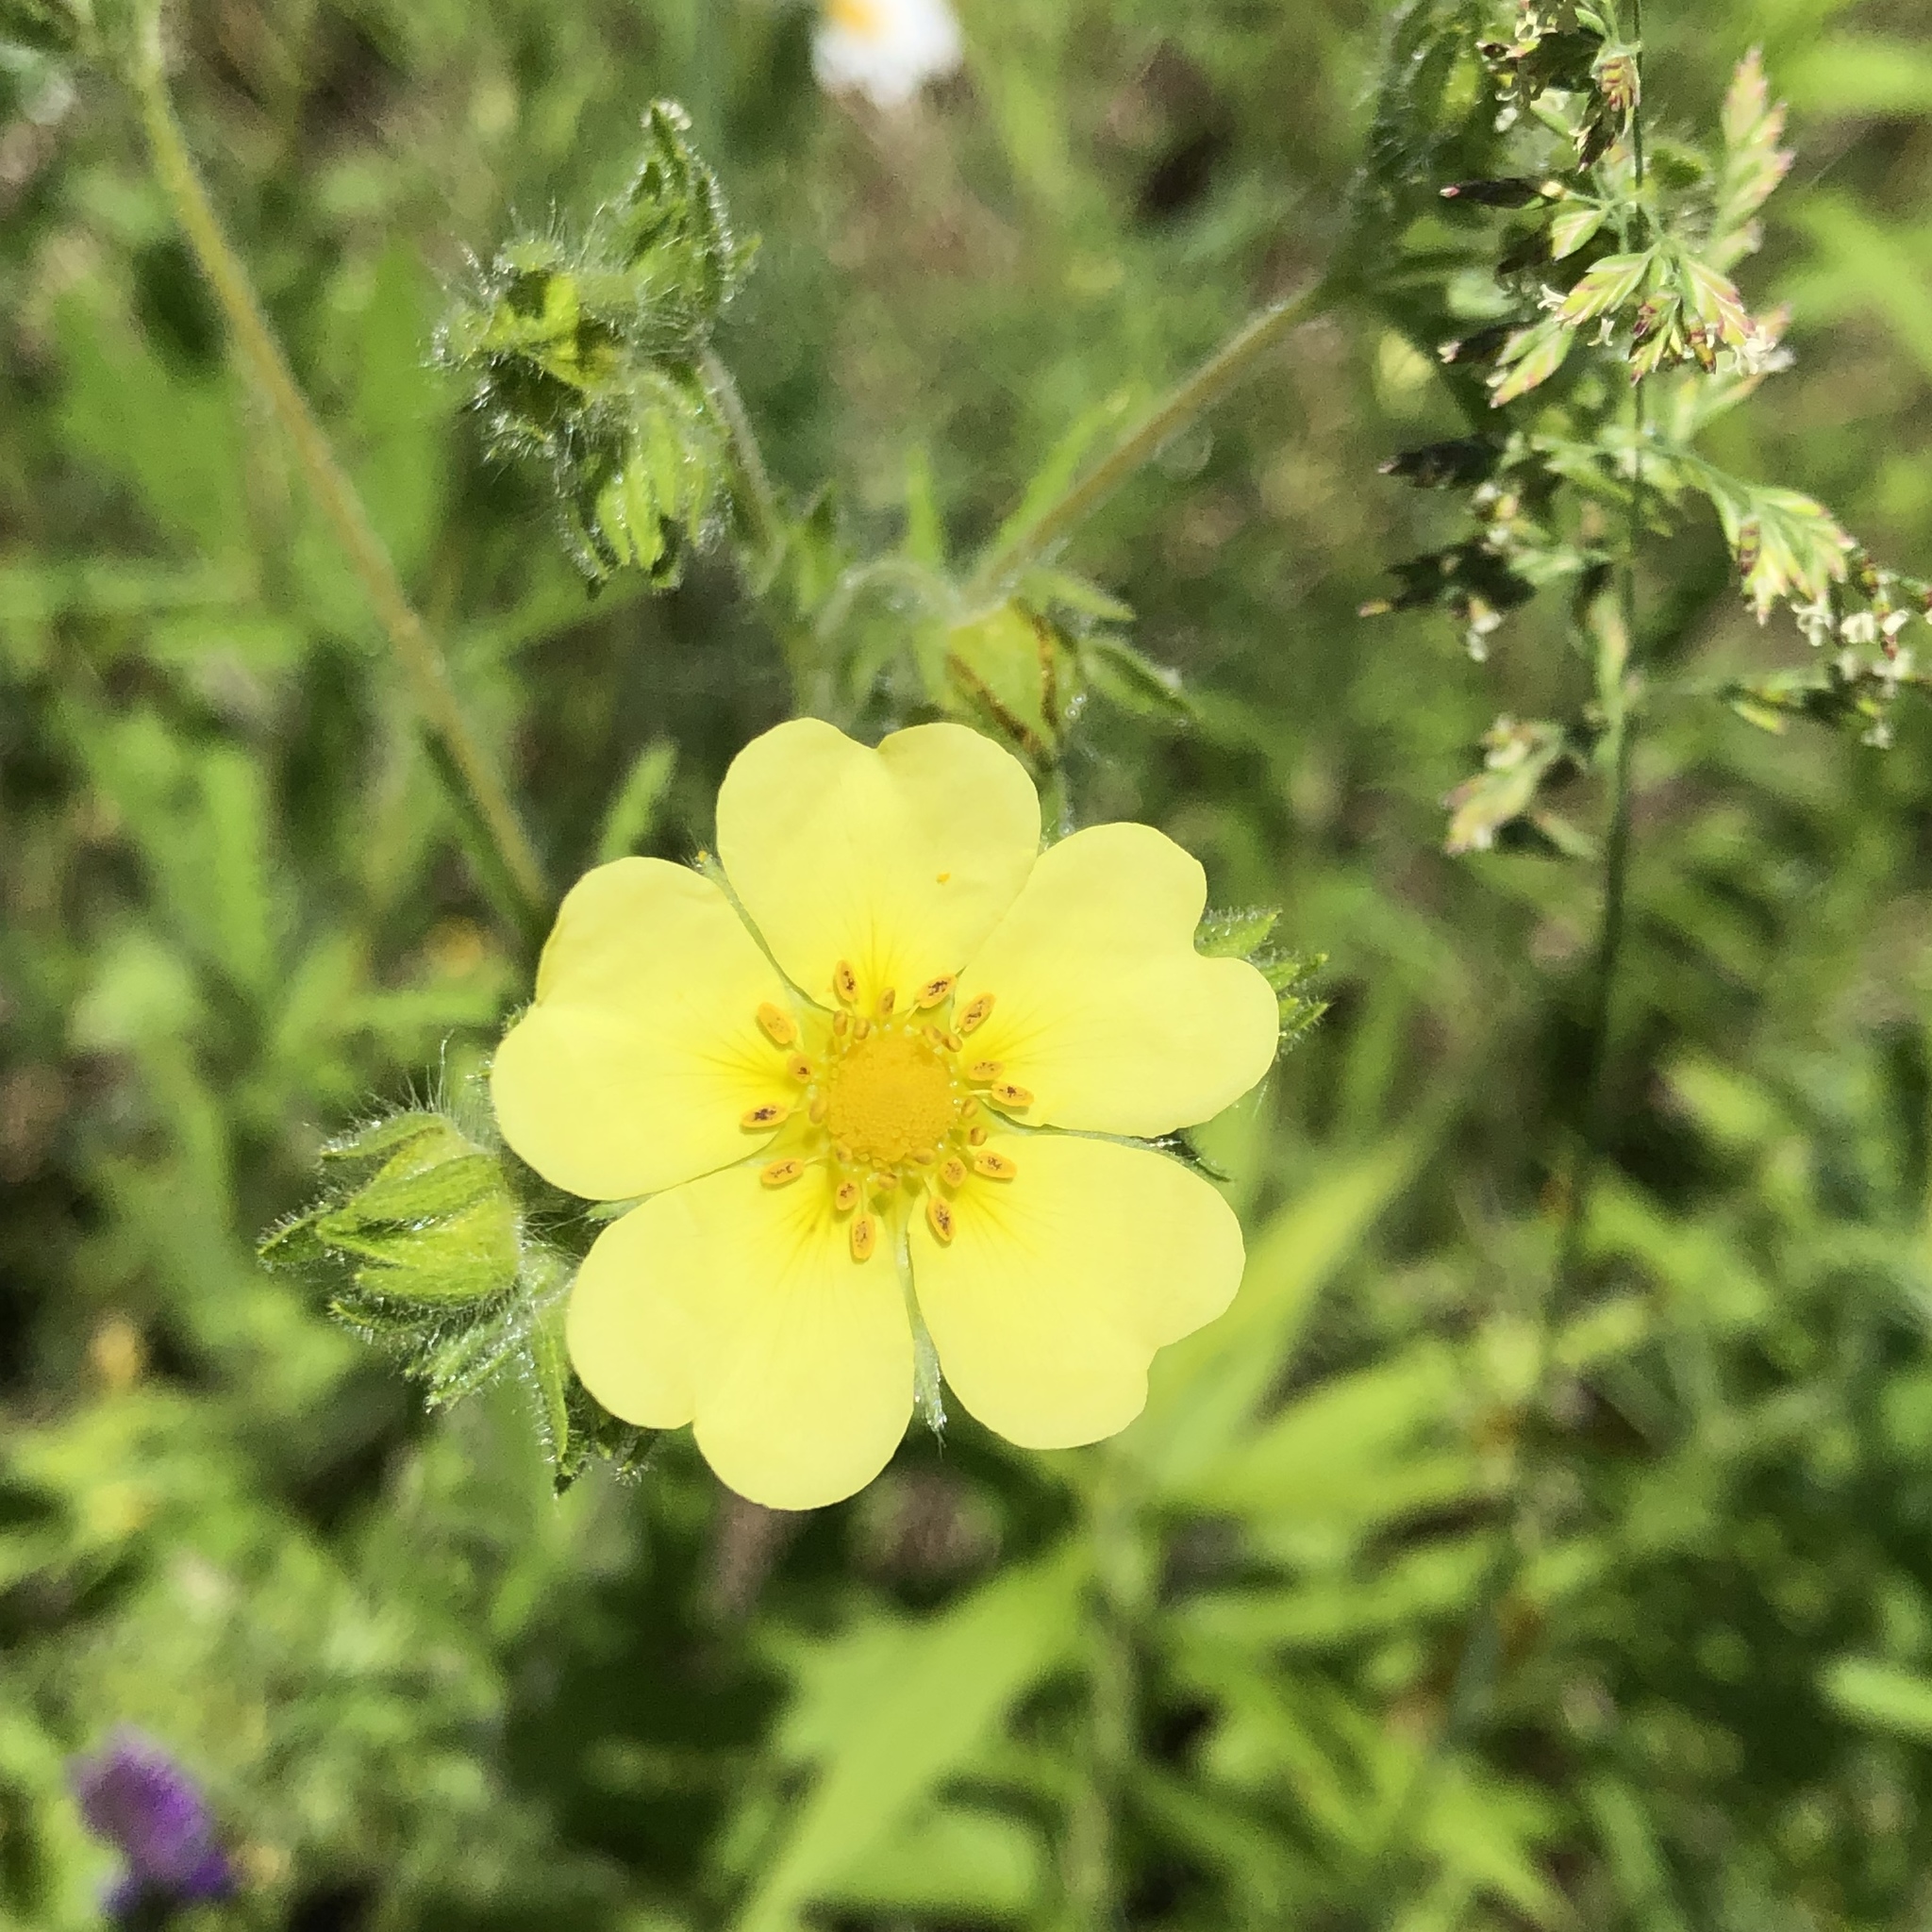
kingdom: Plantae
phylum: Tracheophyta
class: Magnoliopsida
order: Rosales
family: Rosaceae
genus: Potentilla
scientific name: Potentilla recta
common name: Sulphur cinquefoil
